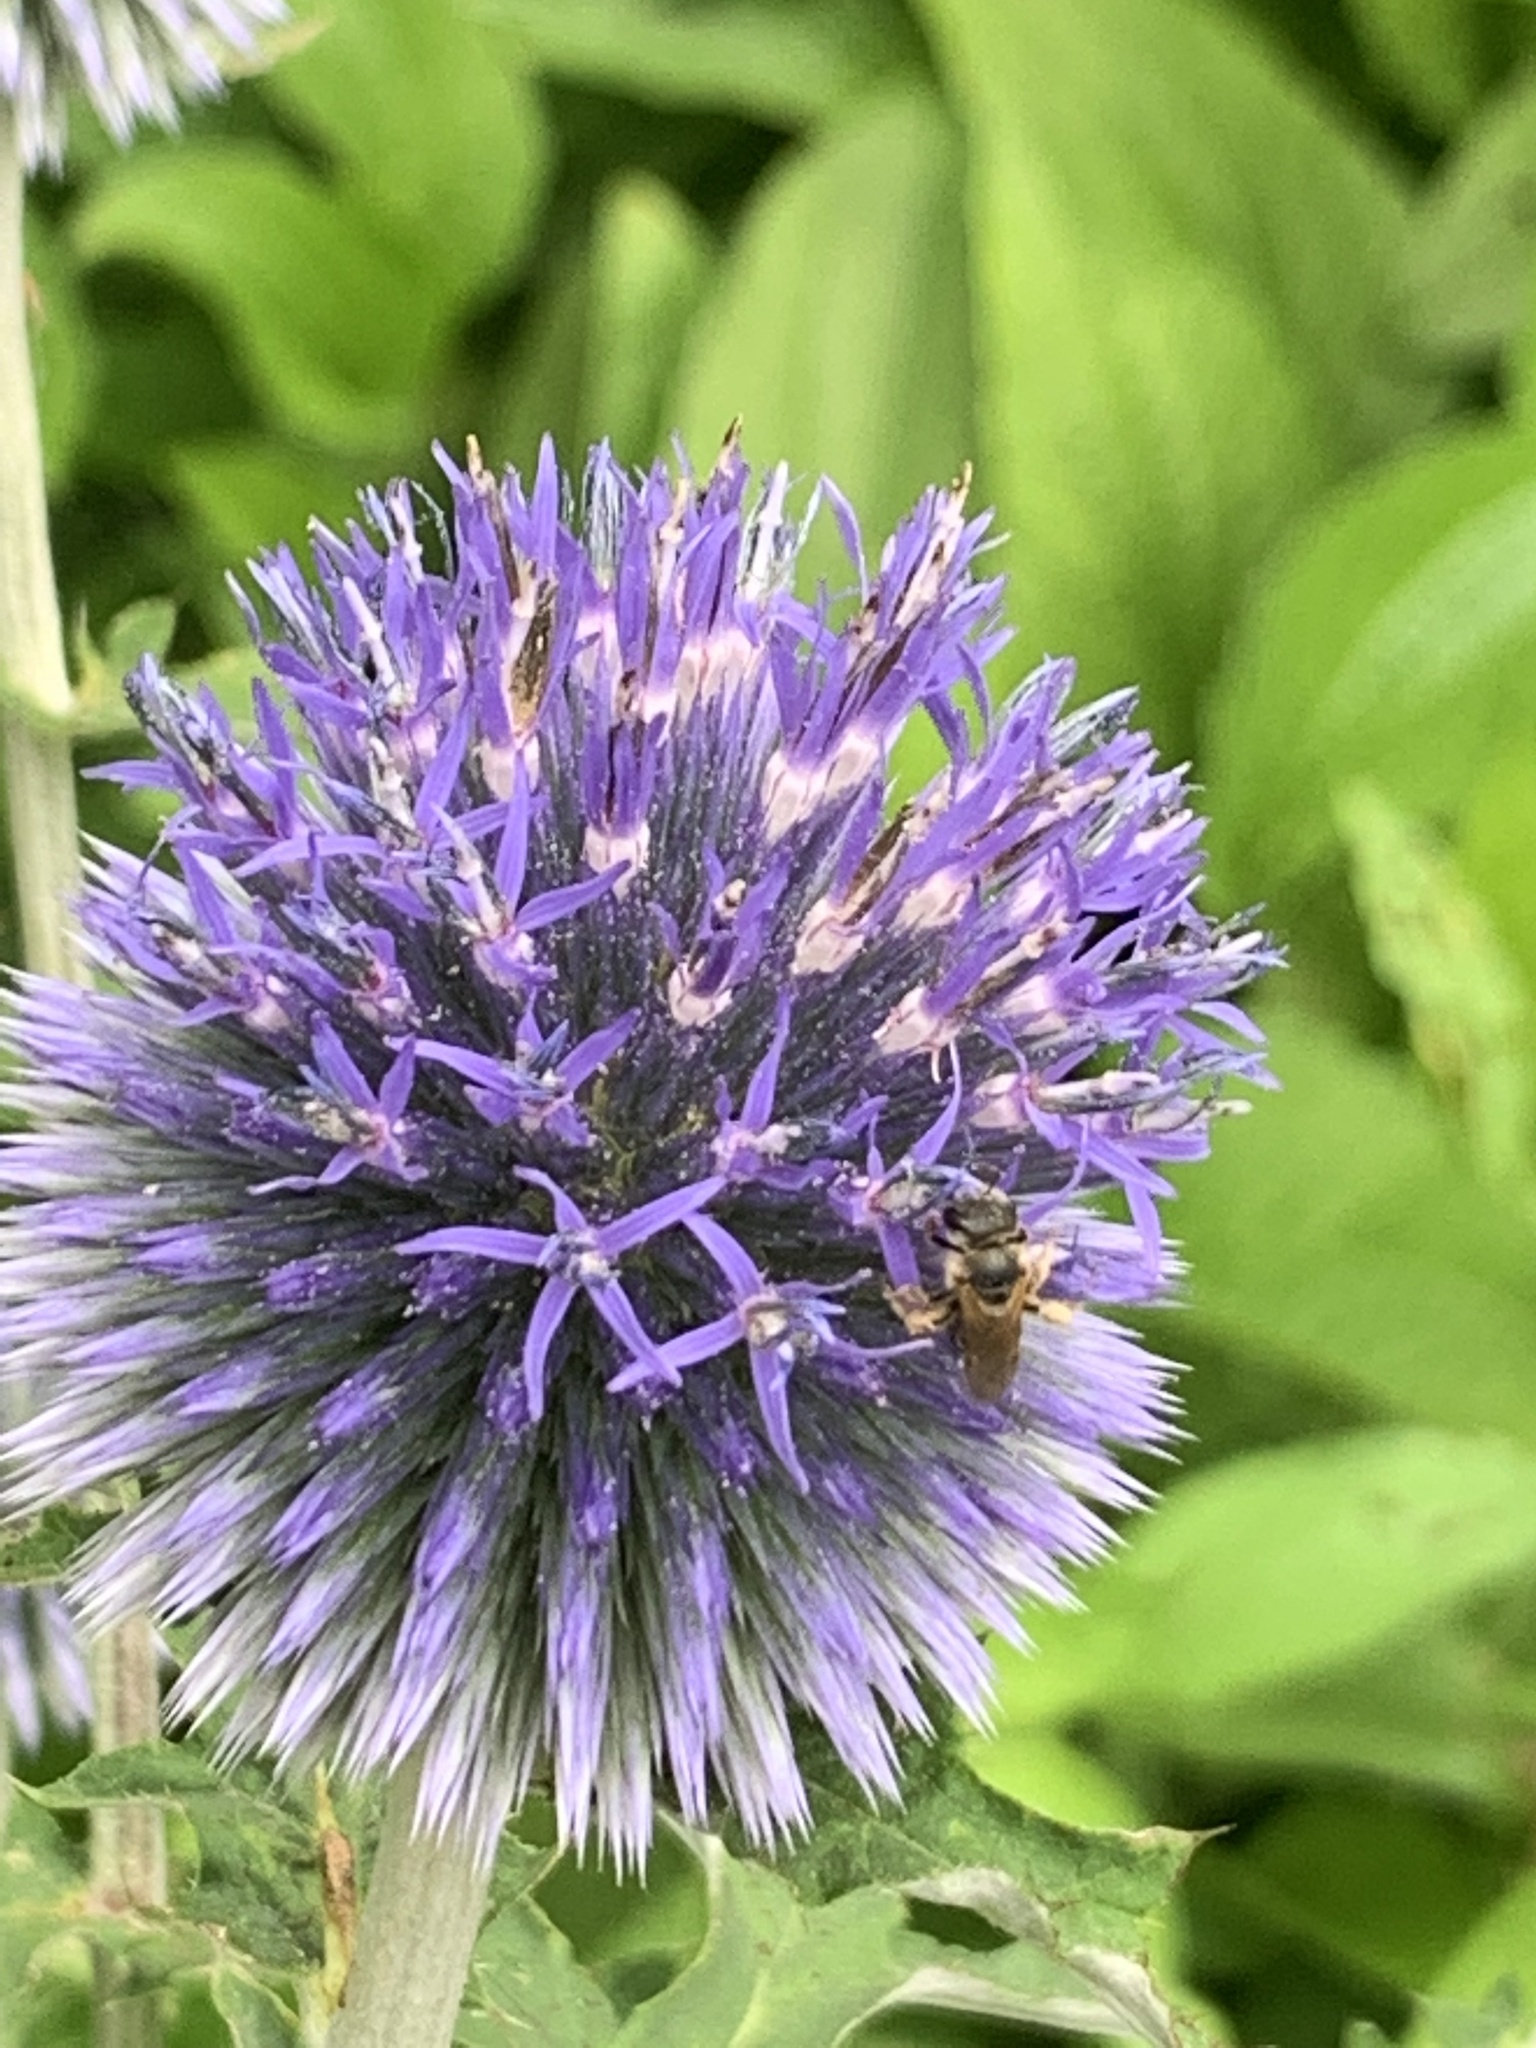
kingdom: Animalia
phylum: Arthropoda
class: Insecta
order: Hymenoptera
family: Halictidae
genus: Halictus
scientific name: Halictus ligatus
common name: Ligated furrow bee
